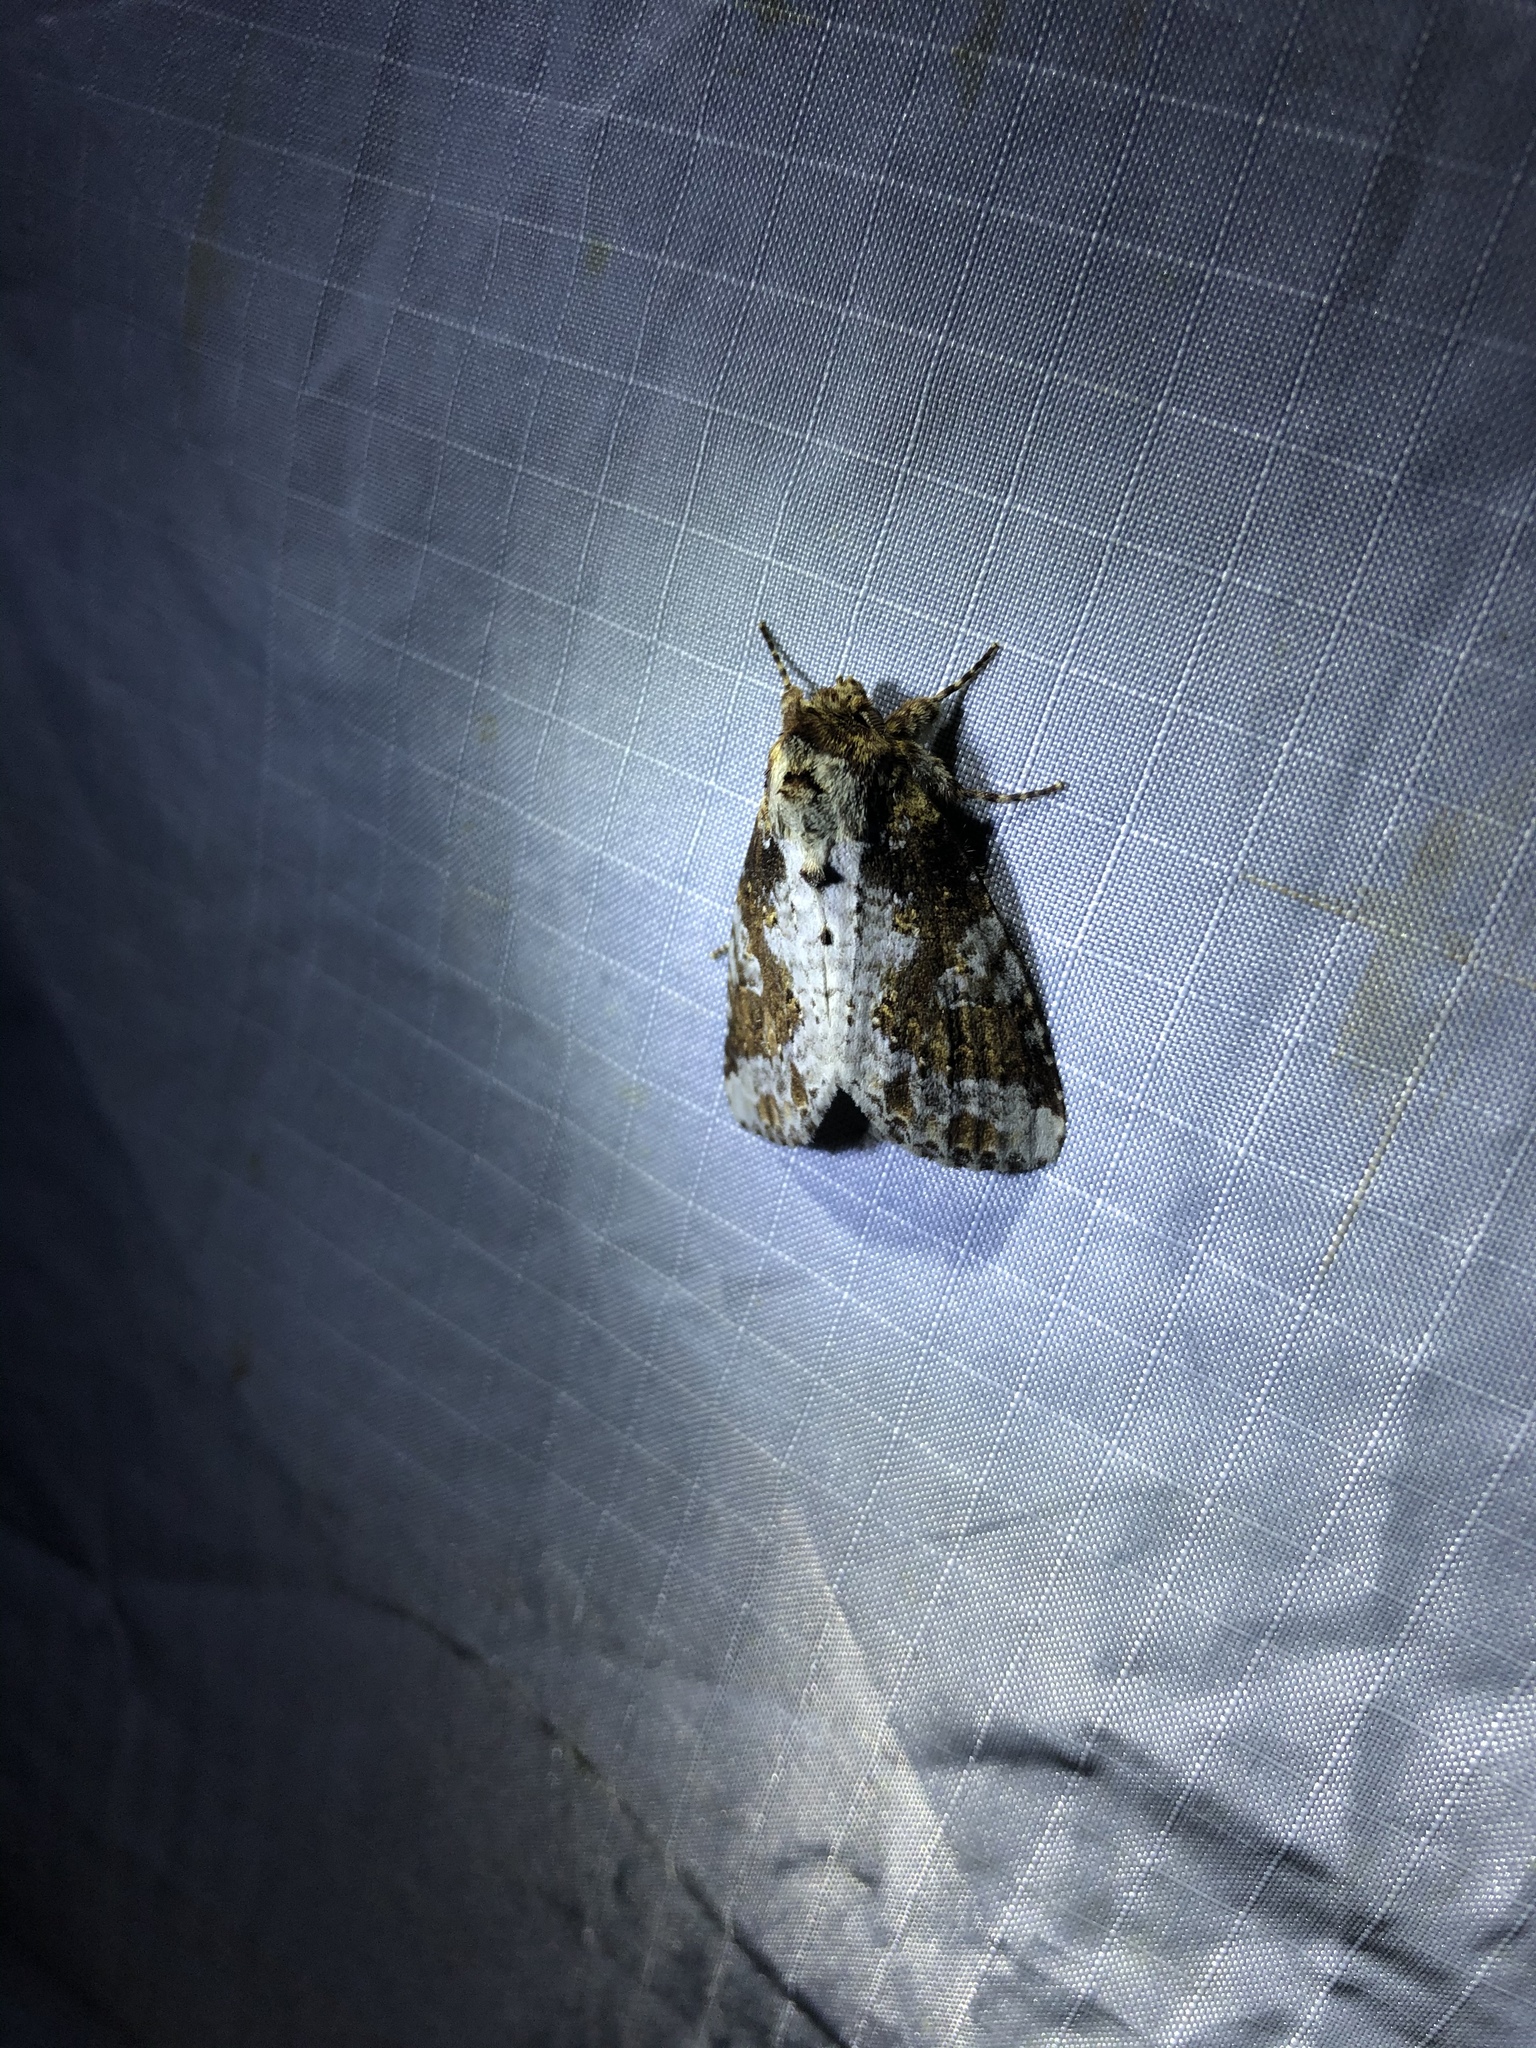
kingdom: Animalia
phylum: Arthropoda
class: Insecta
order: Lepidoptera
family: Notodontidae
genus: Disphragis
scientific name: Disphragis tharis
